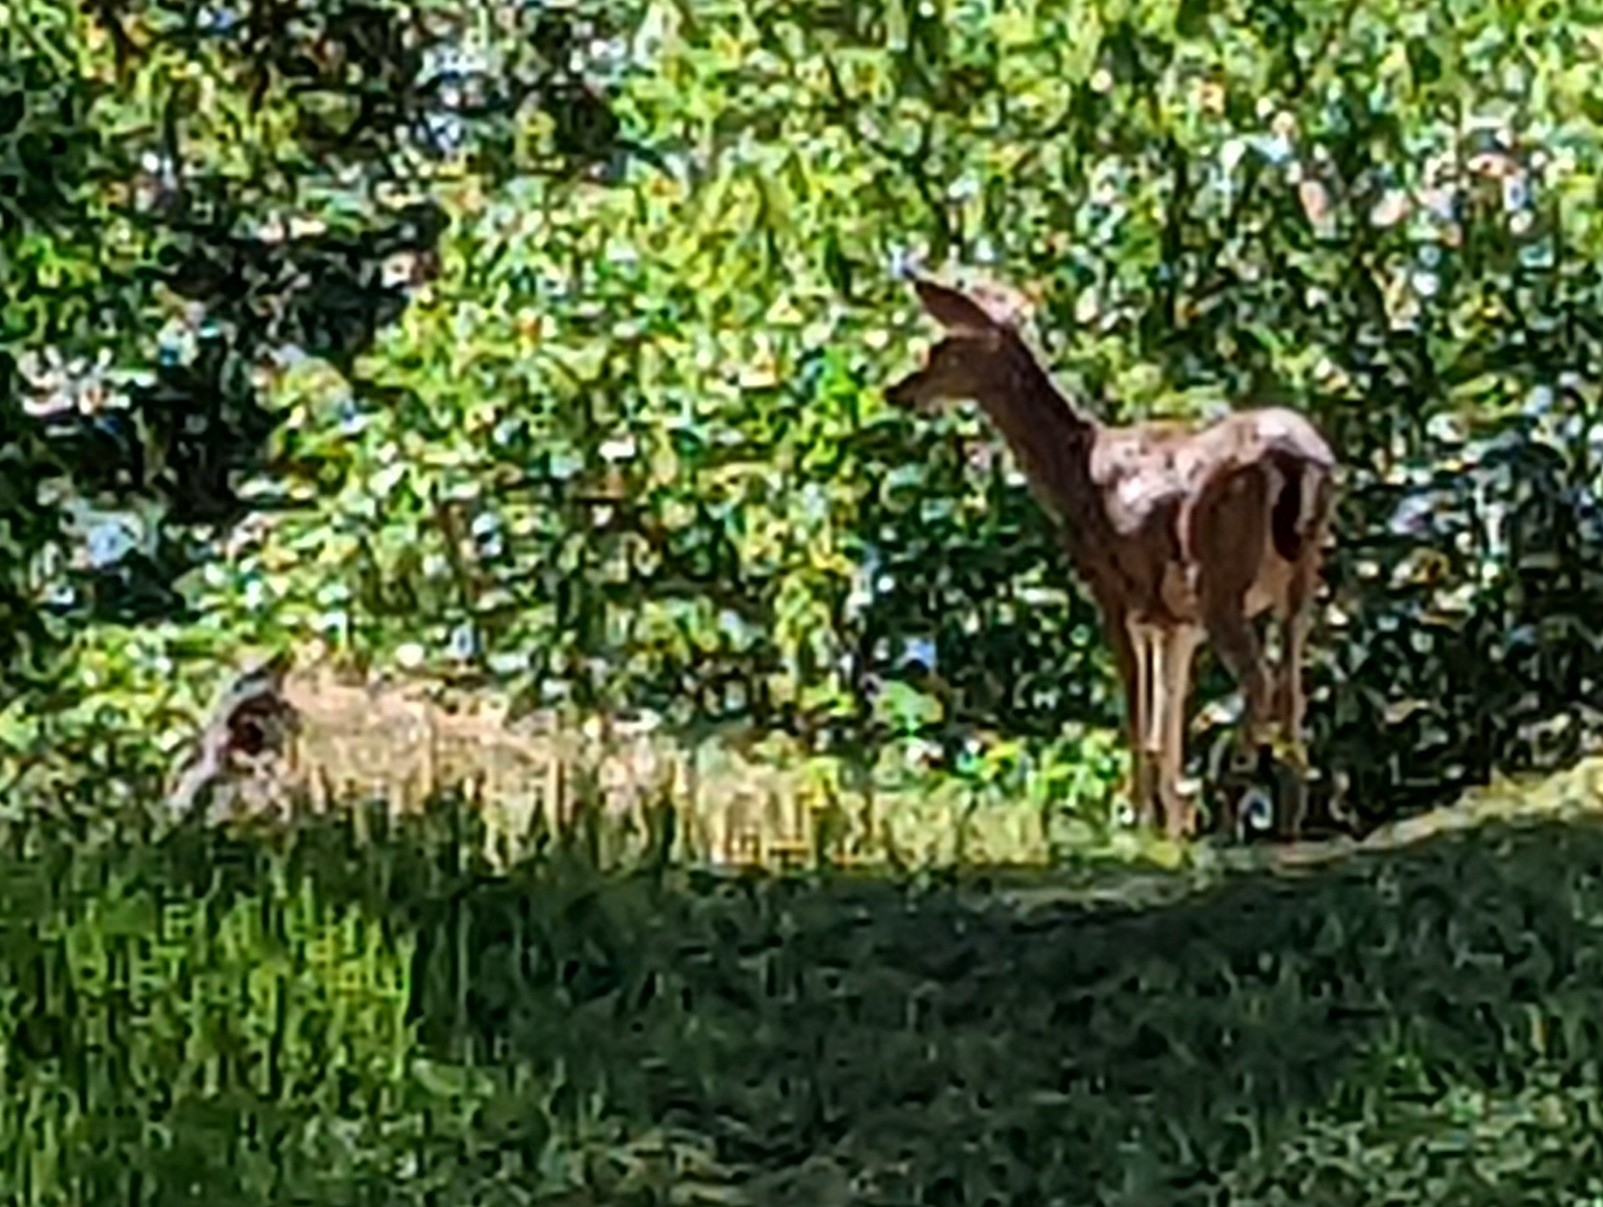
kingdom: Animalia
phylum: Chordata
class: Mammalia
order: Artiodactyla
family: Cervidae
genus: Odocoileus
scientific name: Odocoileus hemionus
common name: Mule deer
